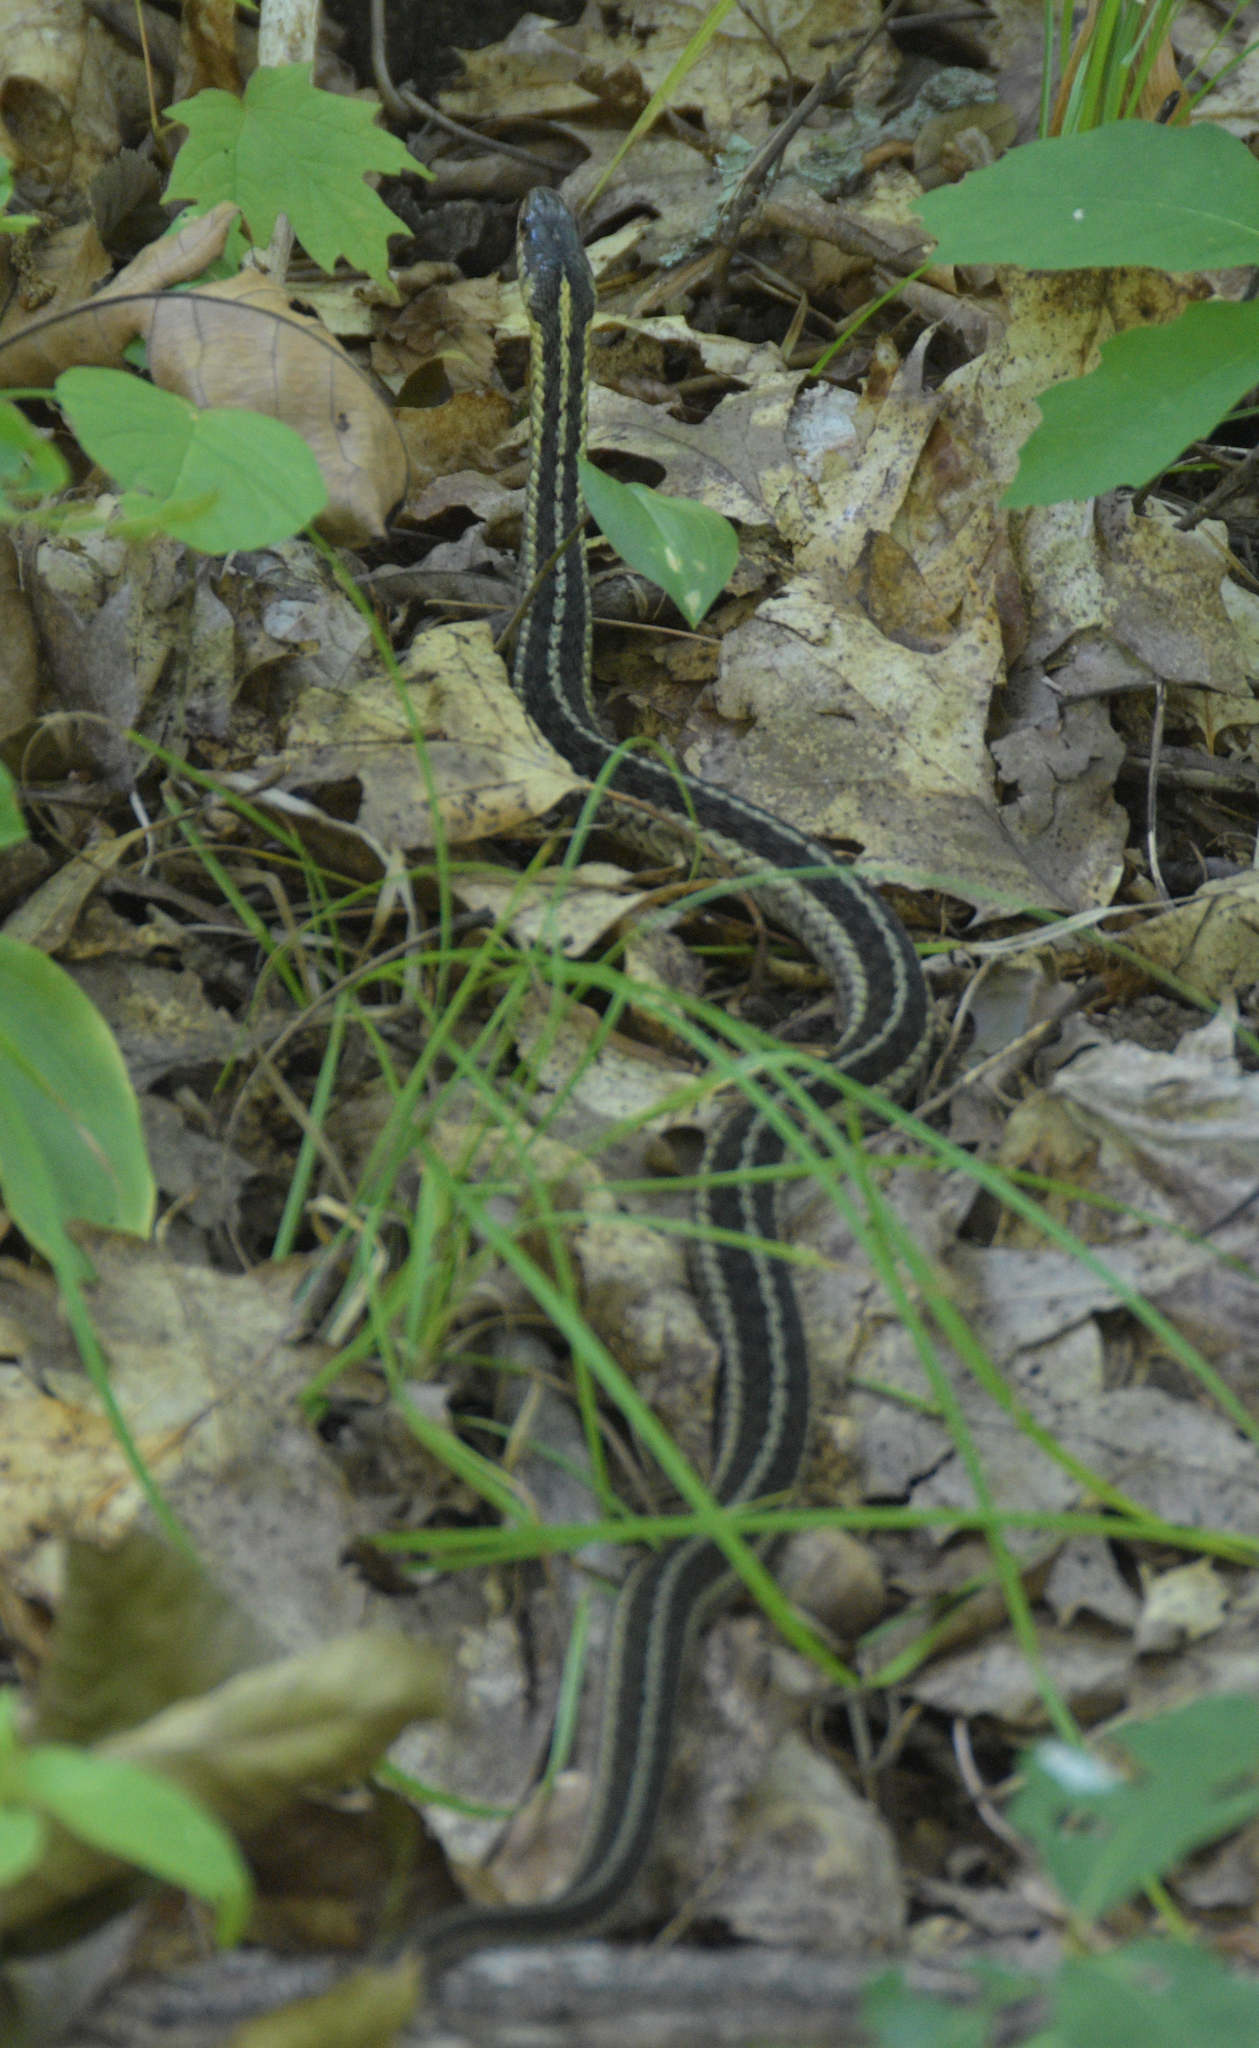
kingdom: Animalia
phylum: Chordata
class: Squamata
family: Colubridae
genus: Thamnophis
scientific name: Thamnophis sirtalis
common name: Common garter snake
